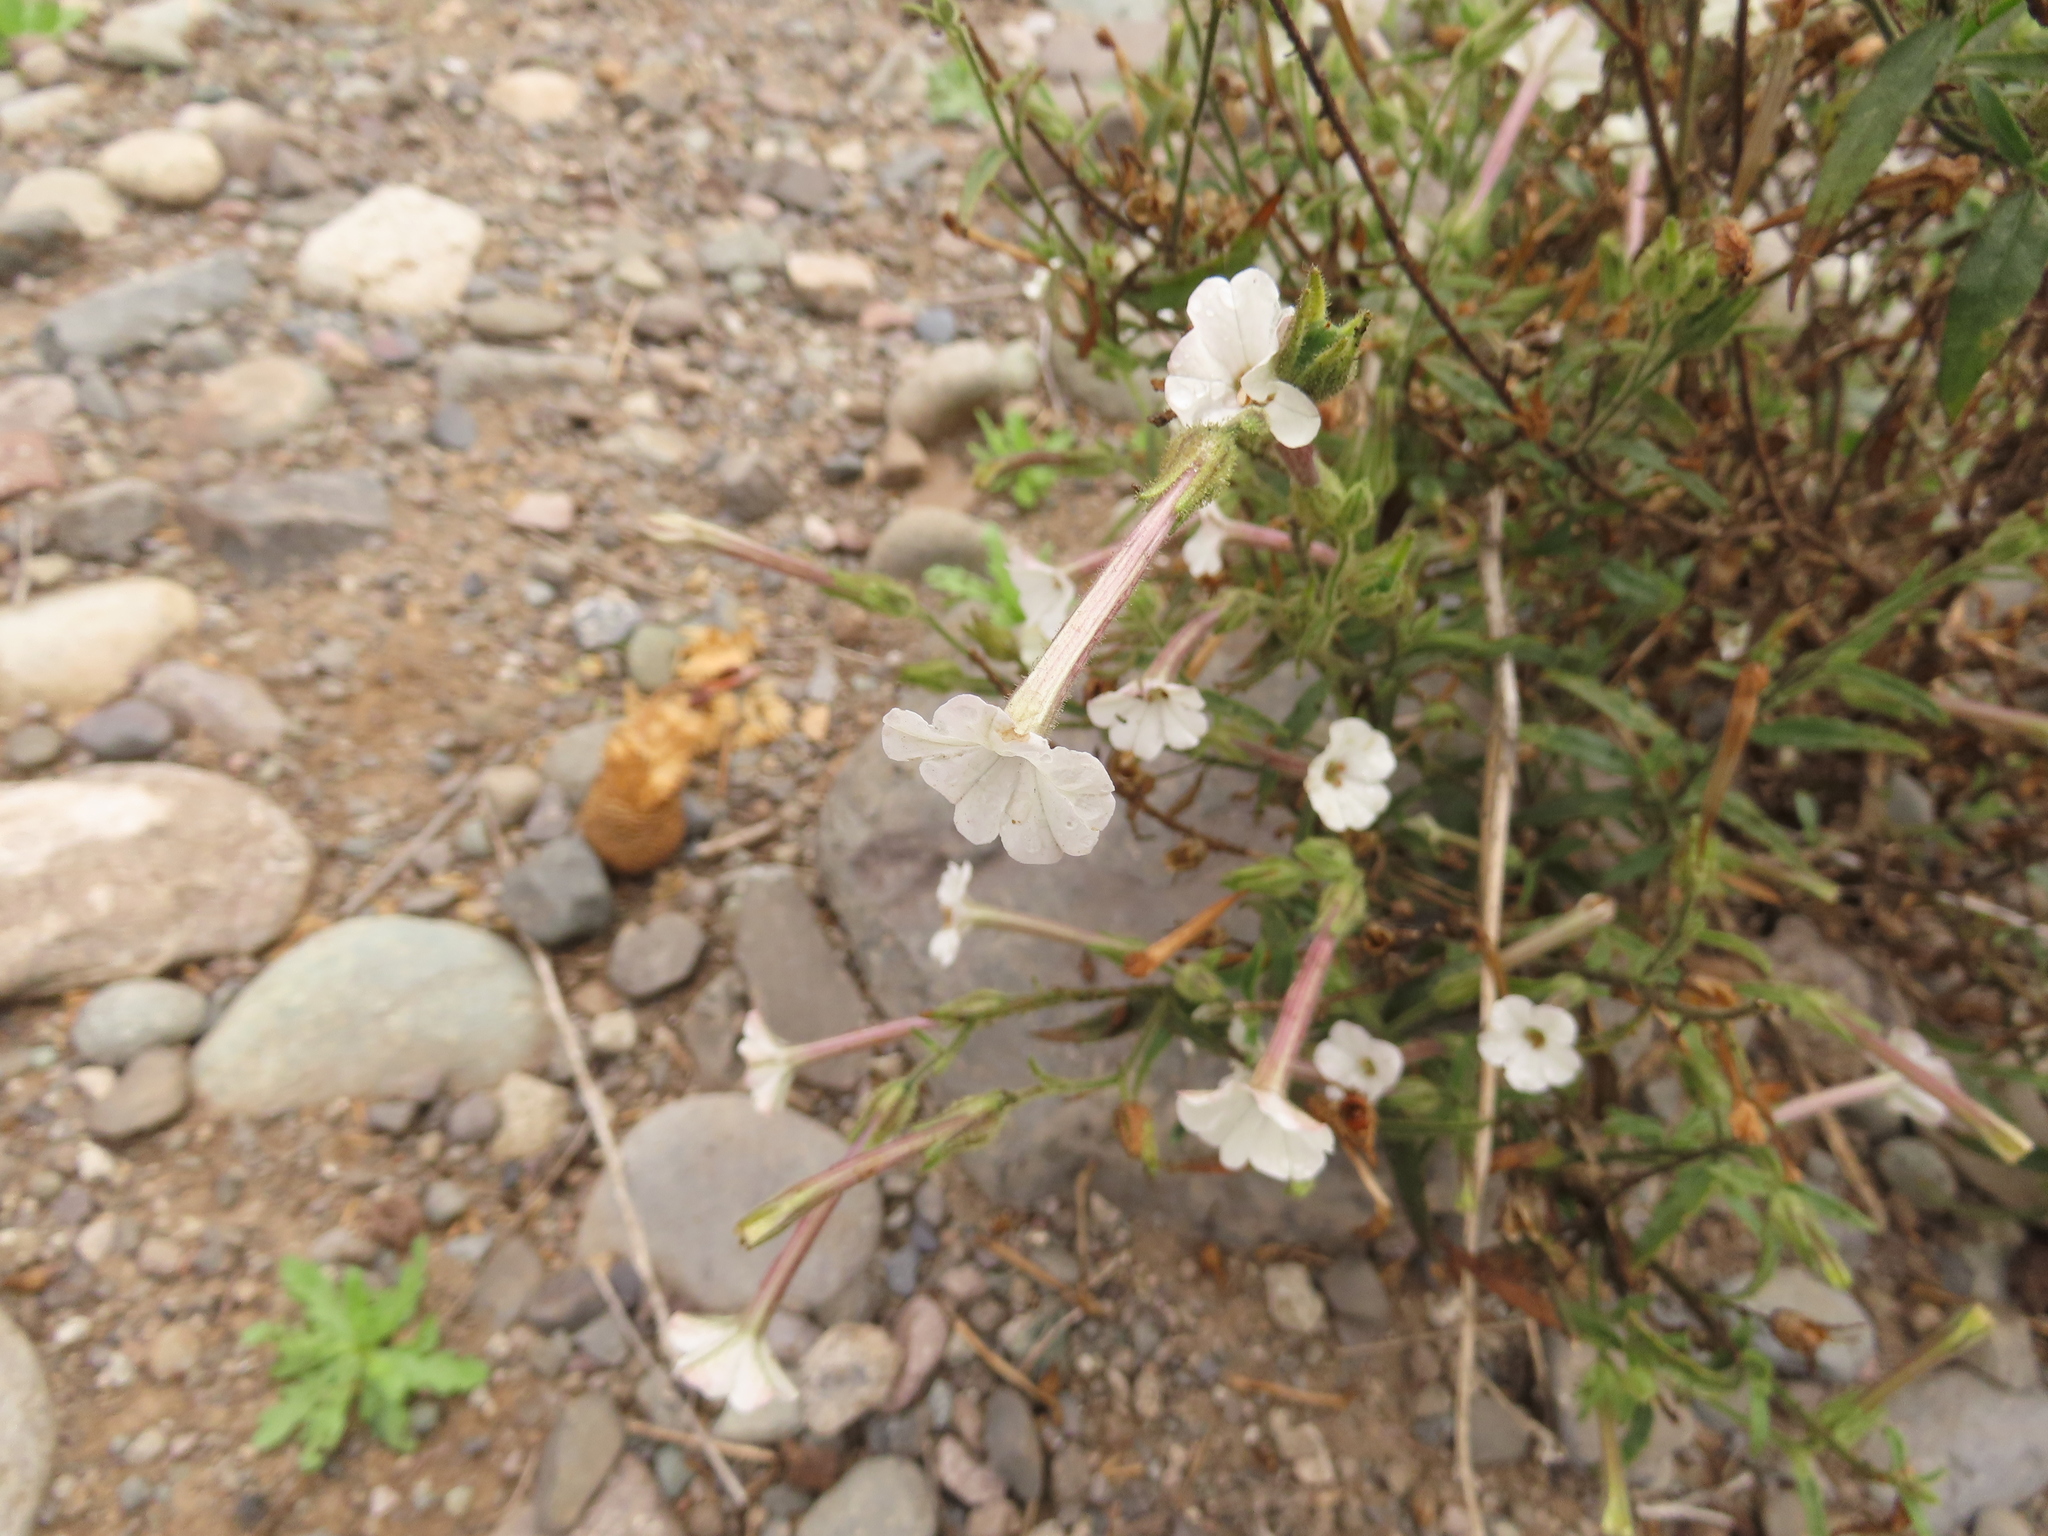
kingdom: Plantae
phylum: Tracheophyta
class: Magnoliopsida
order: Solanales
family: Solanaceae
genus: Nicotiana
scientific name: Nicotiana acuminata
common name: Manyflower tobacco
